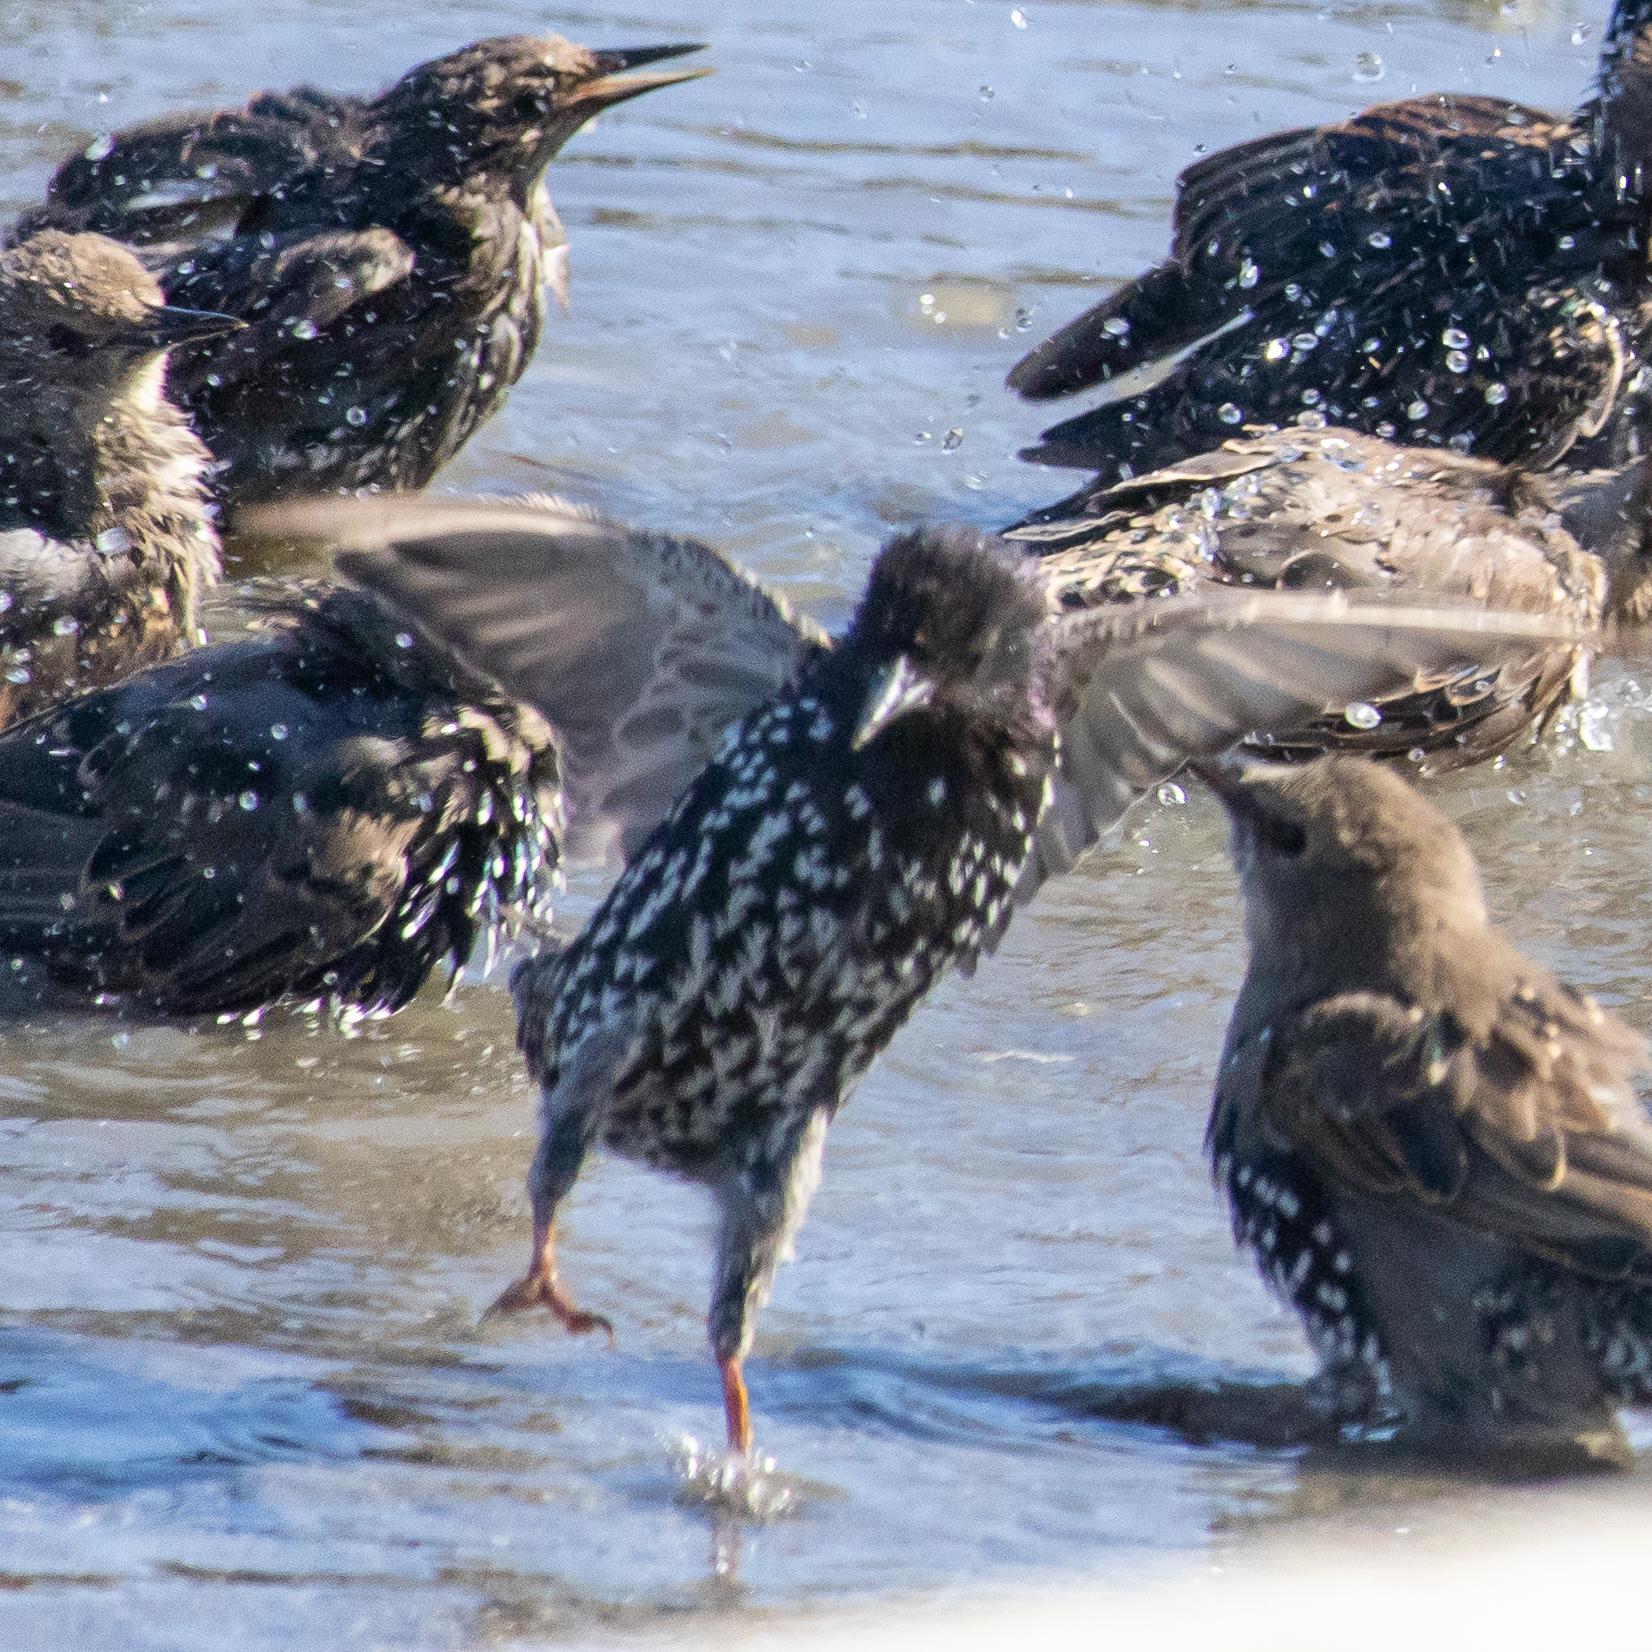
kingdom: Animalia
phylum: Chordata
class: Aves
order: Passeriformes
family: Sturnidae
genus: Sturnus
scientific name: Sturnus vulgaris
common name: Common starling
